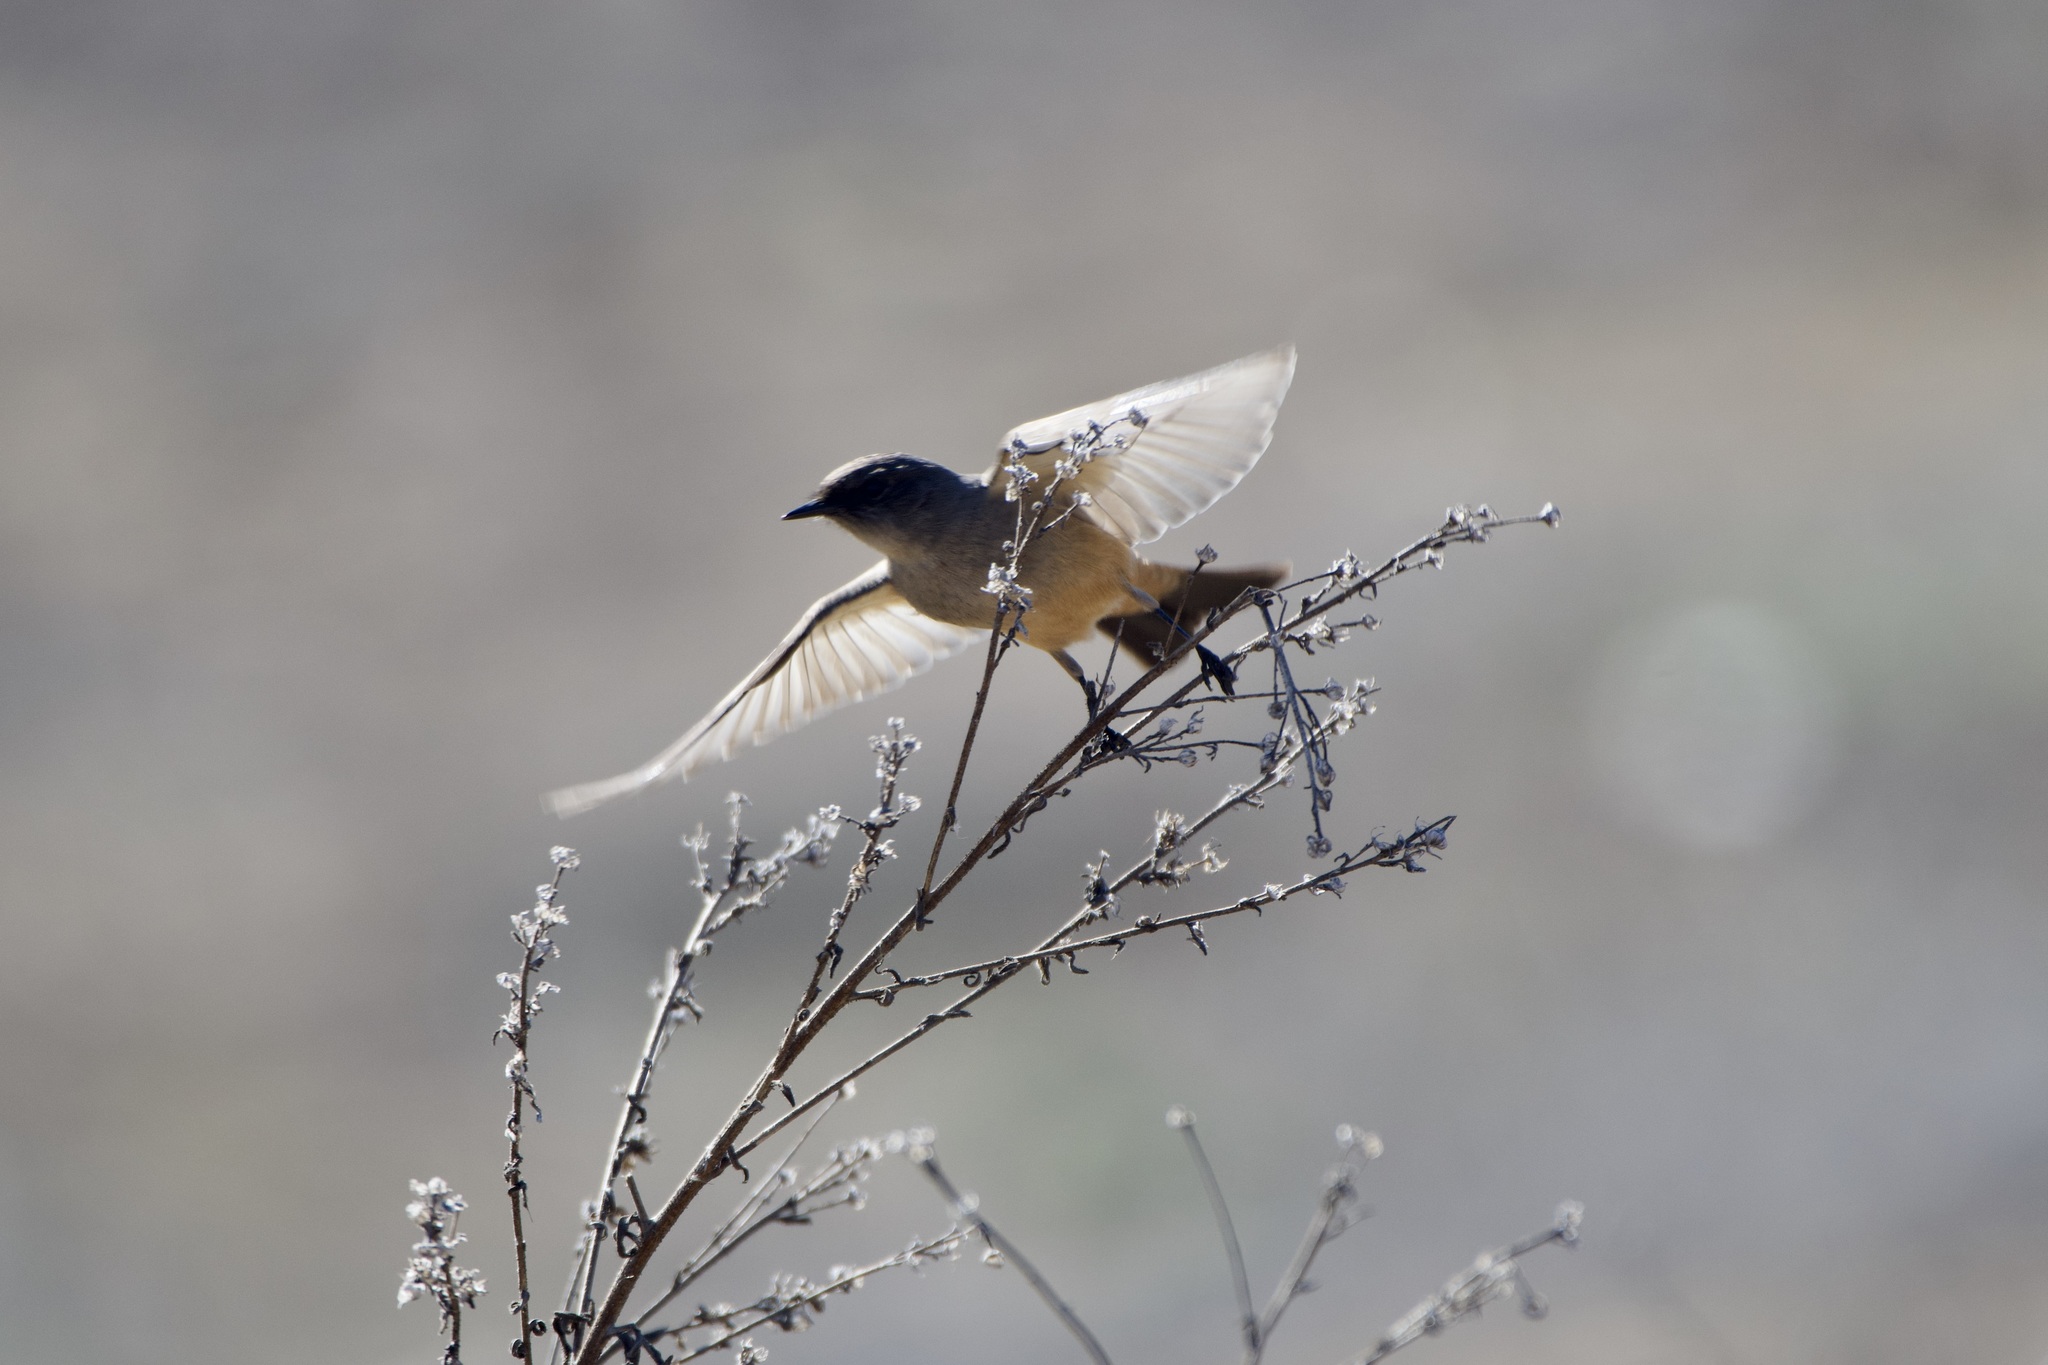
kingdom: Animalia
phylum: Chordata
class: Aves
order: Passeriformes
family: Tyrannidae
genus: Sayornis
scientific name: Sayornis saya
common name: Say's phoebe
